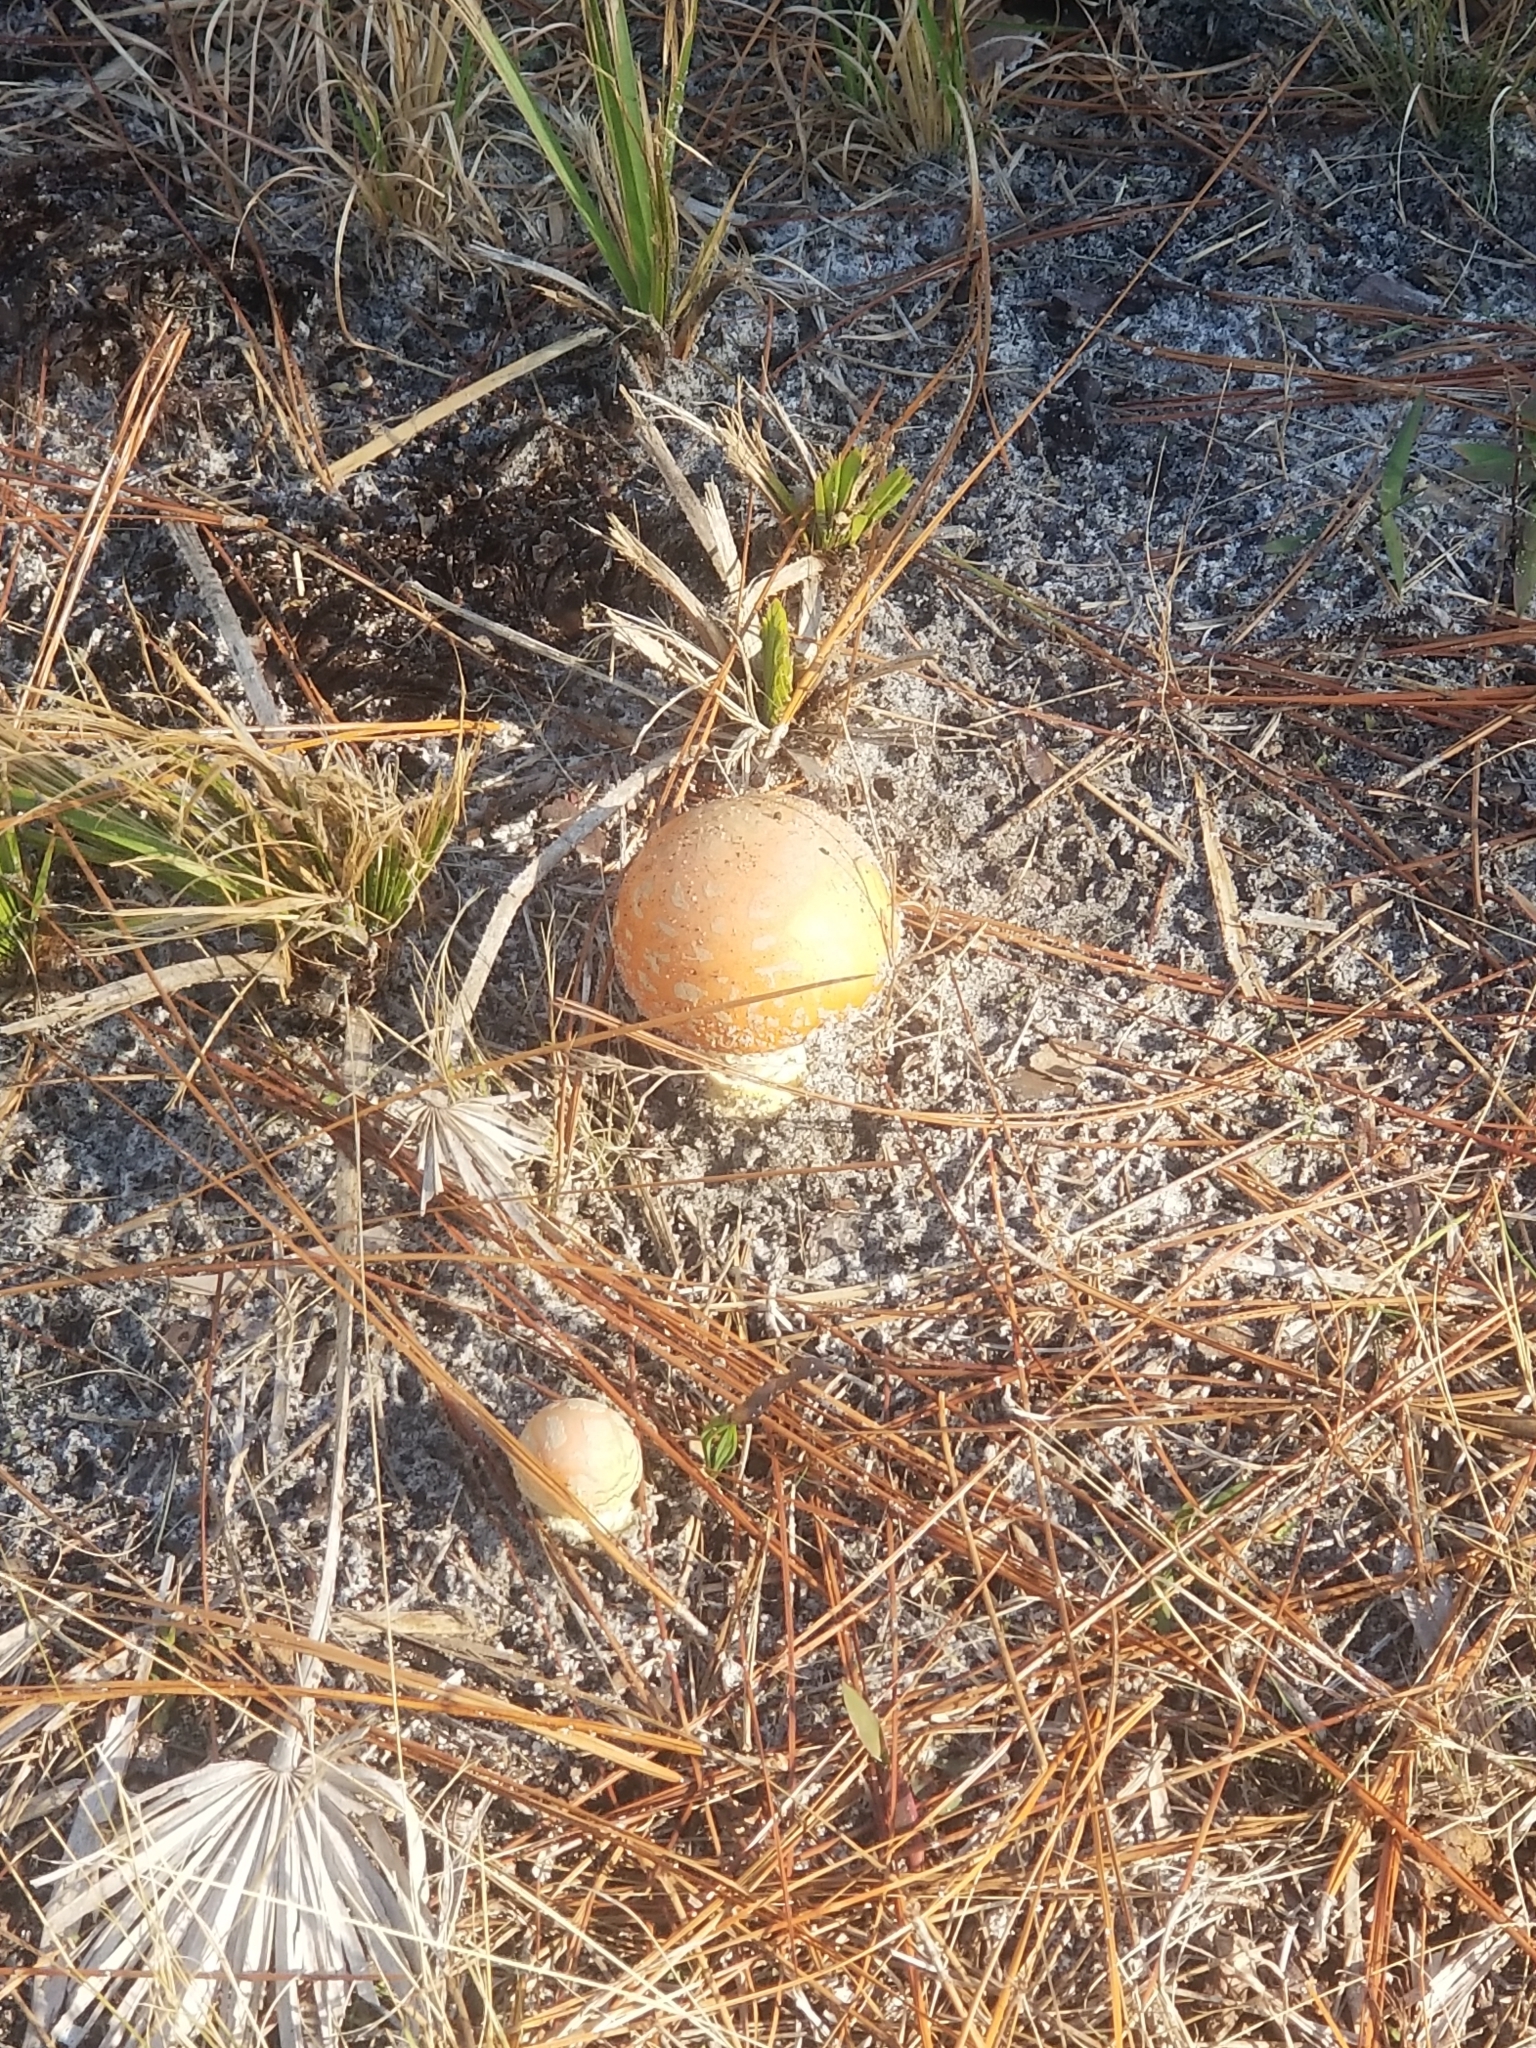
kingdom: Fungi
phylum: Basidiomycota
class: Agaricomycetes
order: Agaricales
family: Amanitaceae
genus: Amanita
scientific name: Amanita persicina
